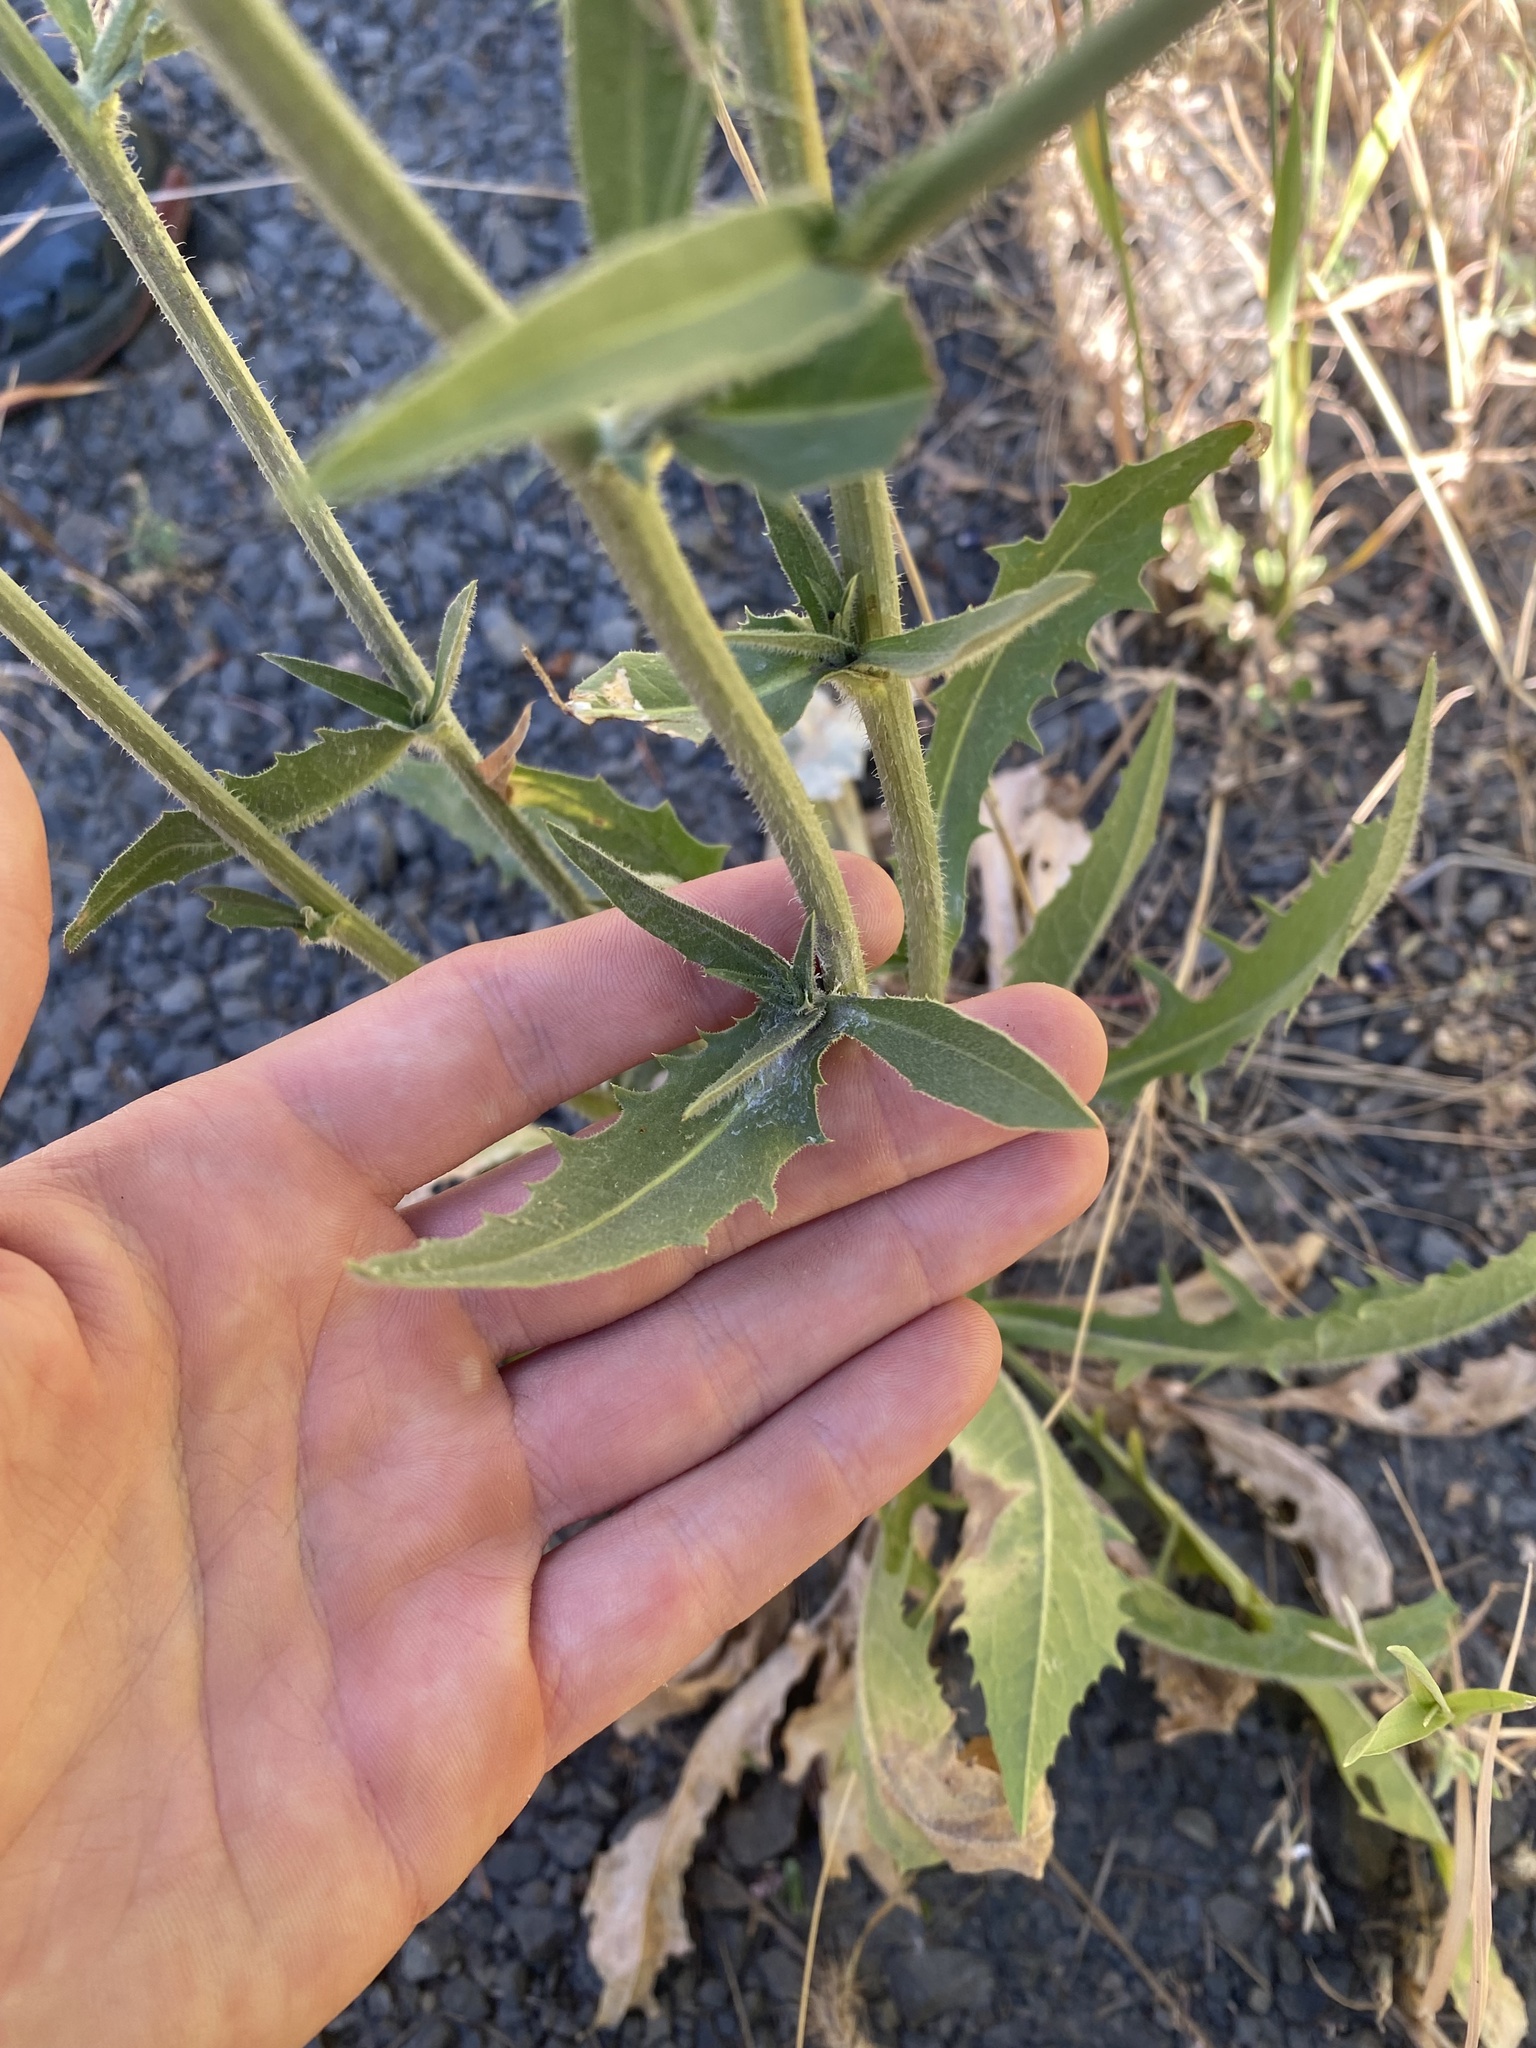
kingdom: Plantae
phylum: Tracheophyta
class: Magnoliopsida
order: Asterales
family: Asteraceae
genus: Cichorium
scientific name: Cichorium intybus
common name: Chicory
